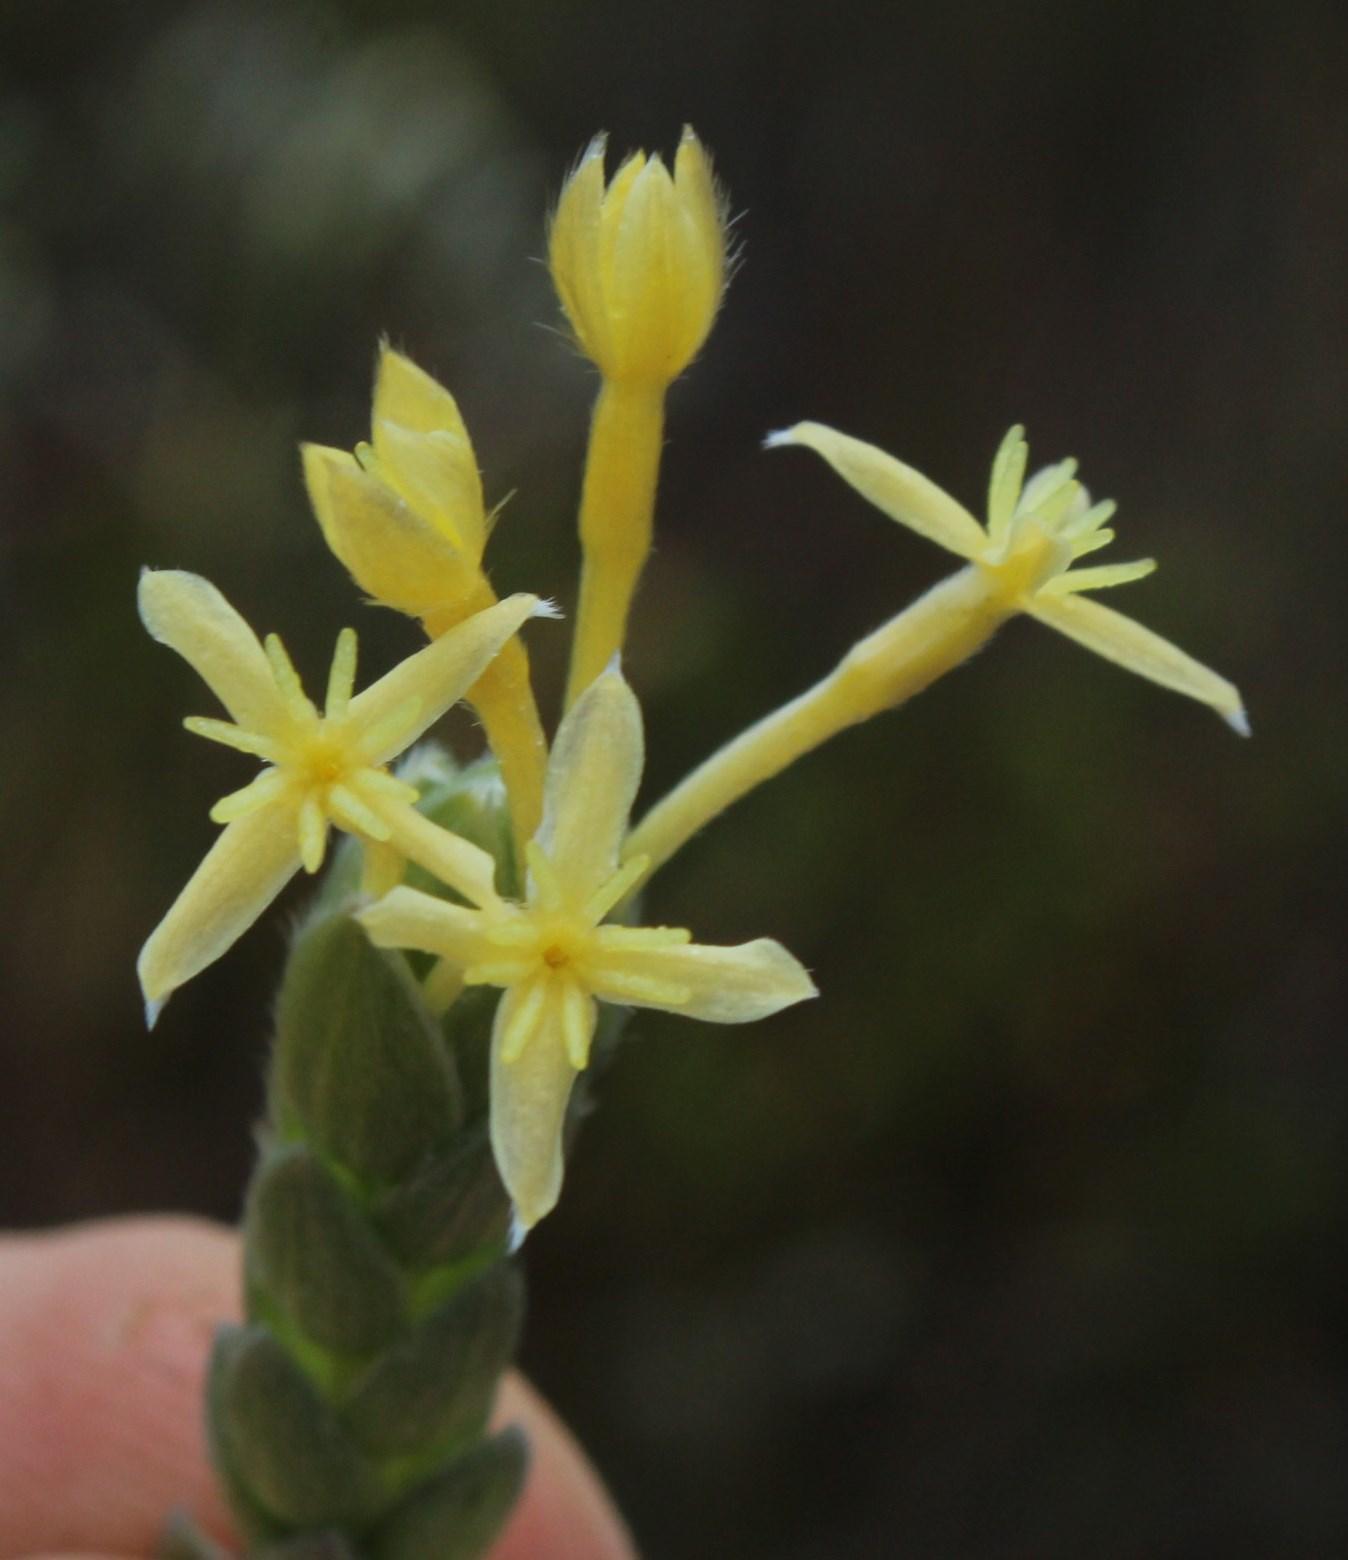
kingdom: Plantae
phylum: Tracheophyta
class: Magnoliopsida
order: Malvales
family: Thymelaeaceae
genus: Gnidia
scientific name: Gnidia anomala
